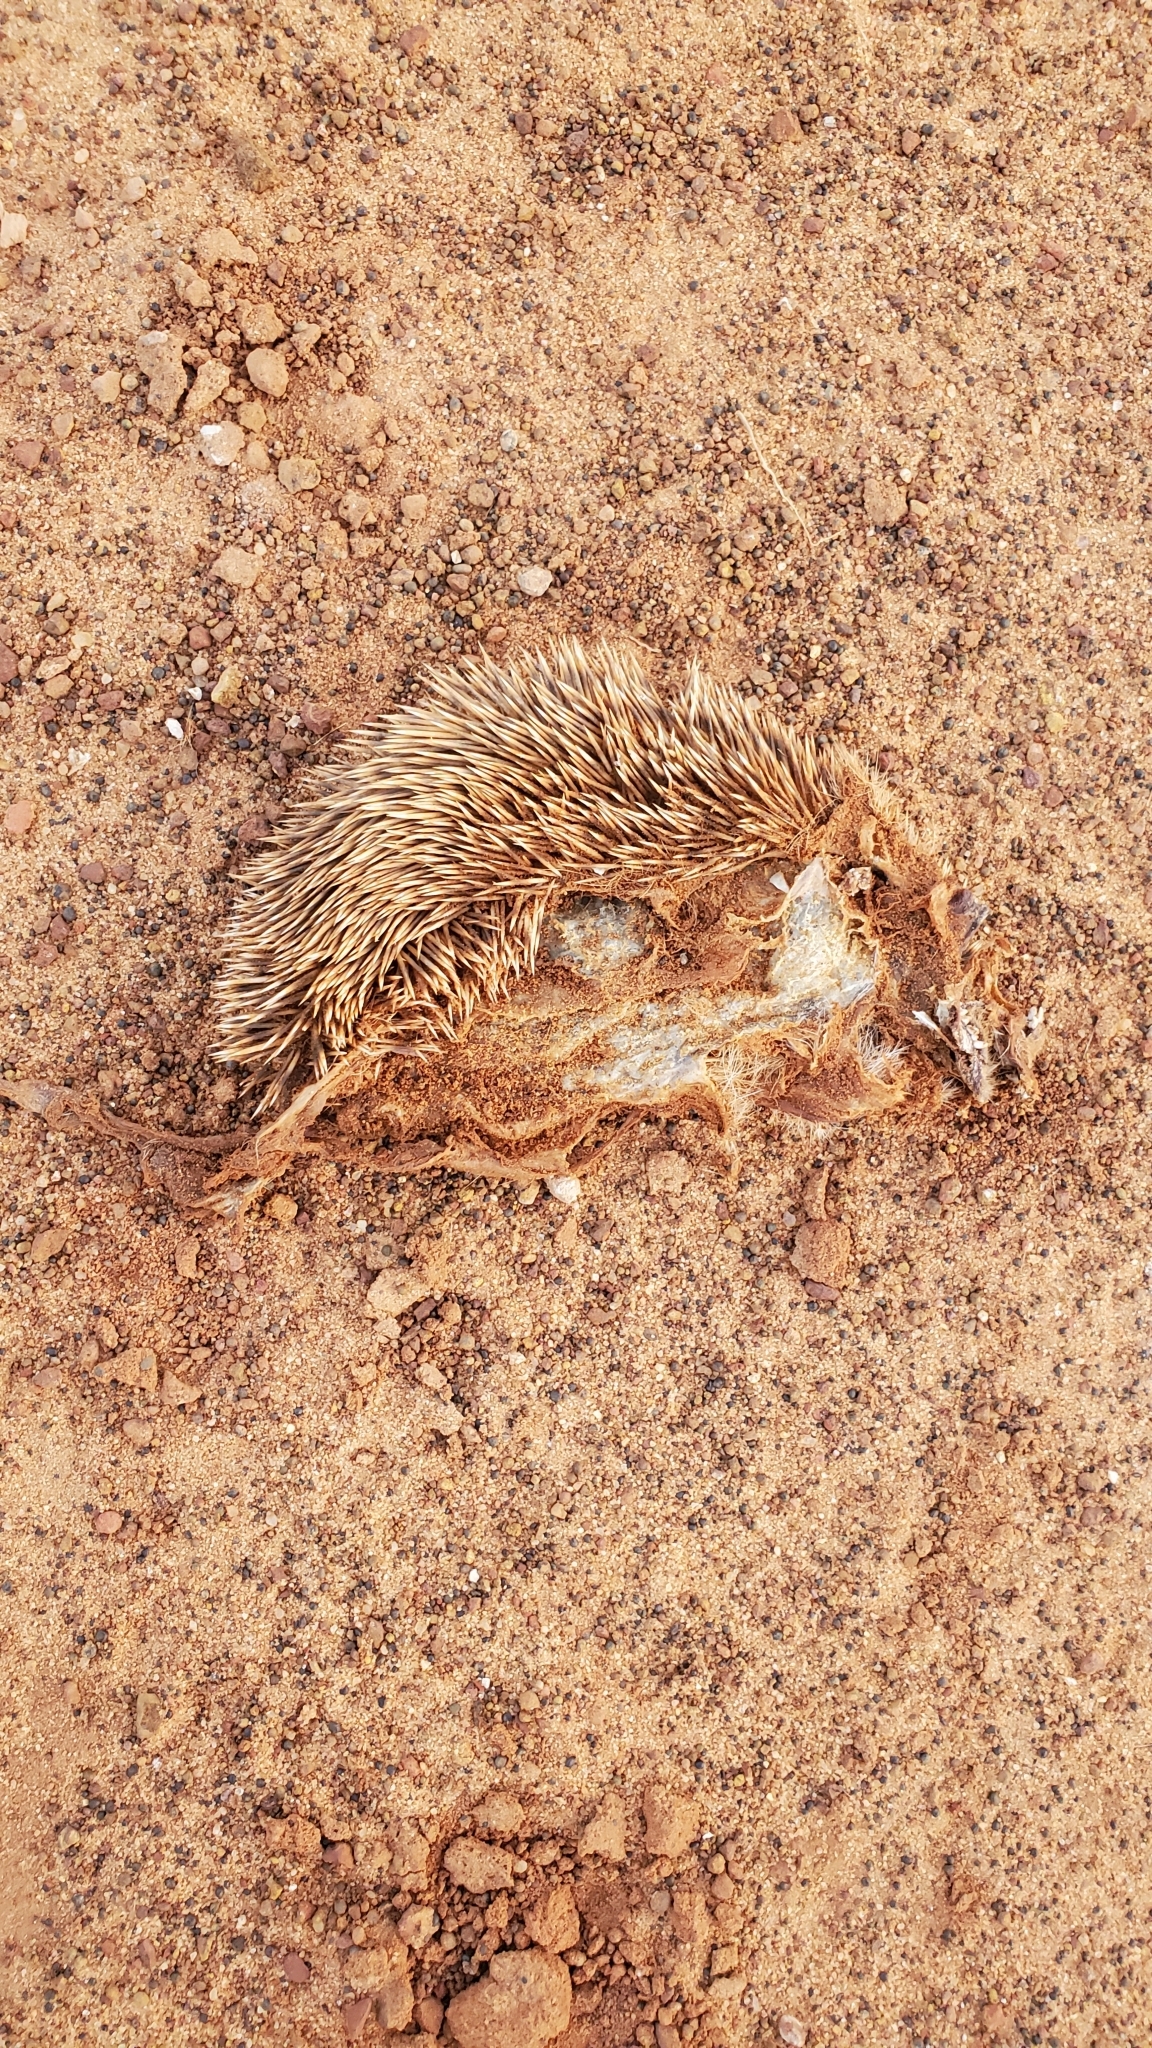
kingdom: Animalia
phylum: Chordata
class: Mammalia
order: Erinaceomorpha
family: Erinaceidae
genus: Atelerix
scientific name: Atelerix albiventris
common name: Four-toed hedgehog
